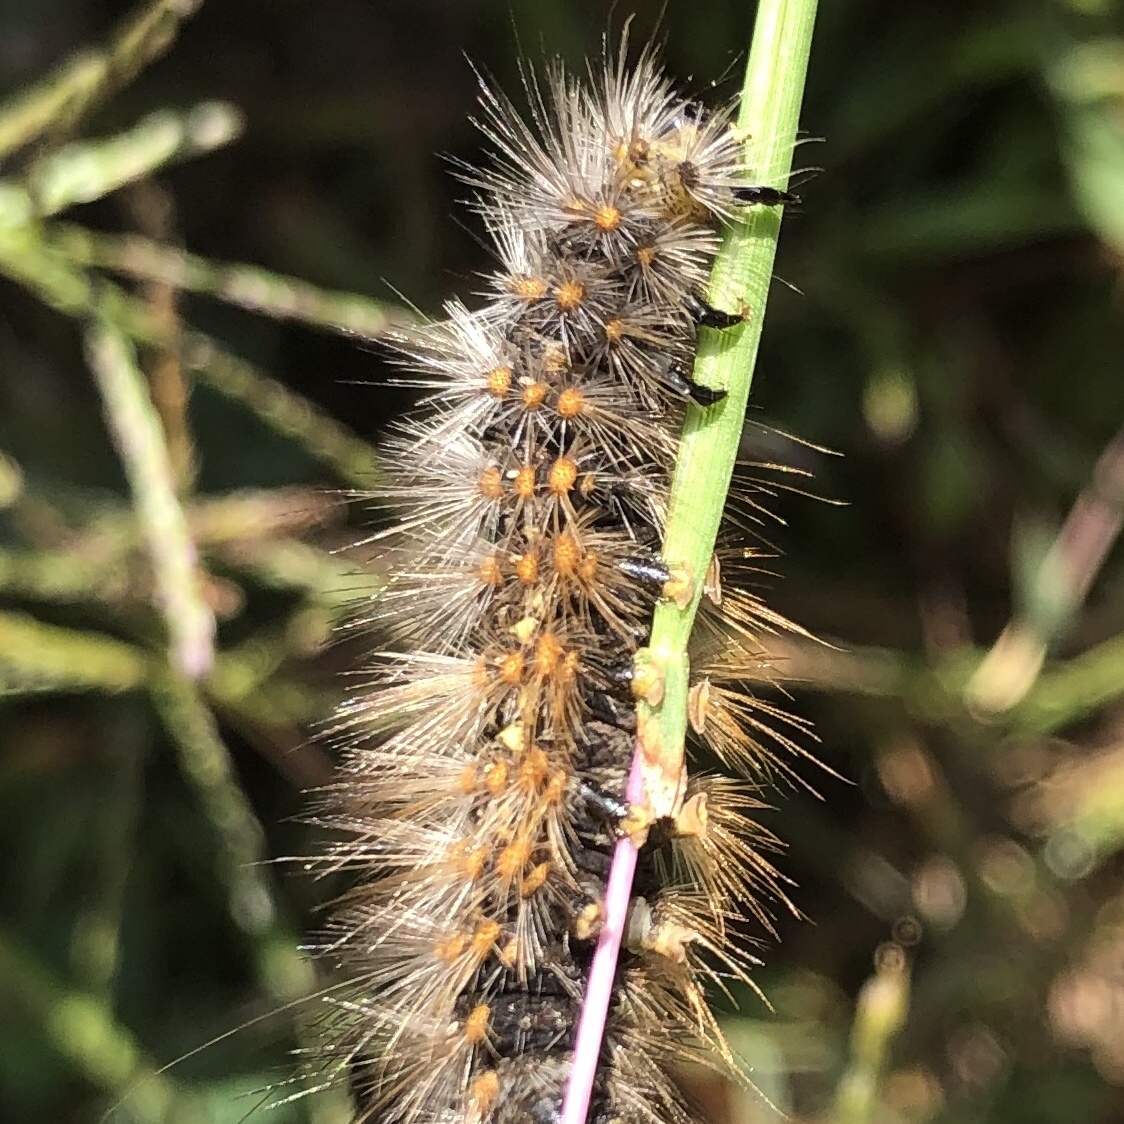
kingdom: Animalia
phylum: Arthropoda
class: Insecta
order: Lepidoptera
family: Erebidae
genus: Estigmene
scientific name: Estigmene acrea
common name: Salt marsh moth
